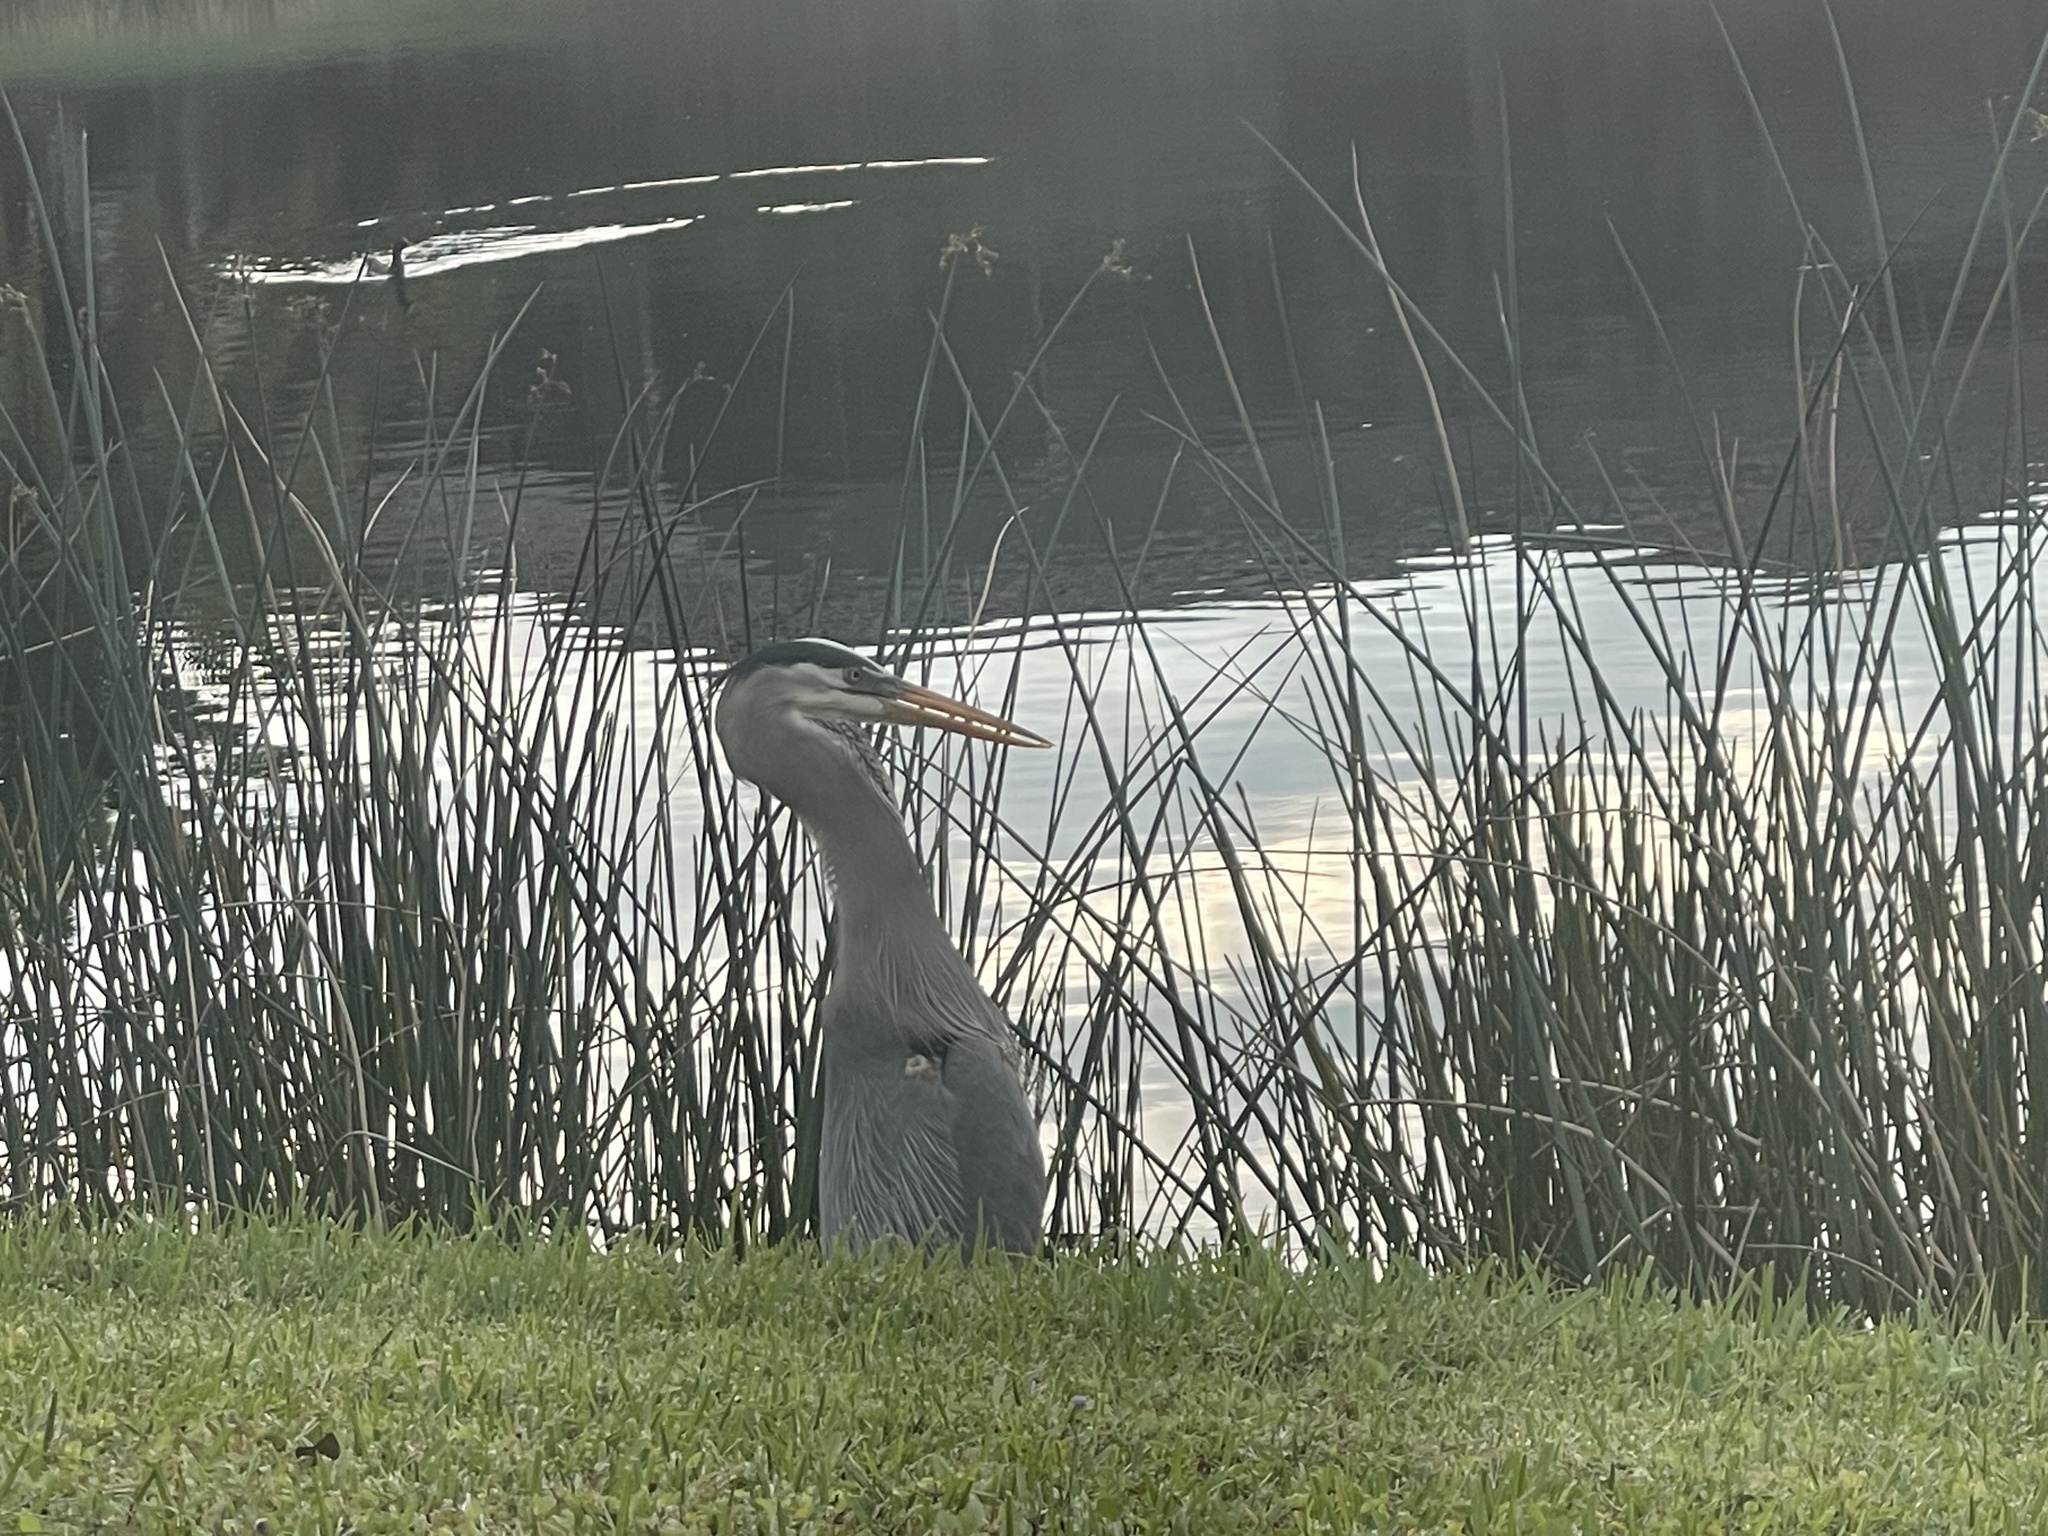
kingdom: Animalia
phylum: Chordata
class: Aves
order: Pelecaniformes
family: Ardeidae
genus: Ardea
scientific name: Ardea herodias
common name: Great blue heron
